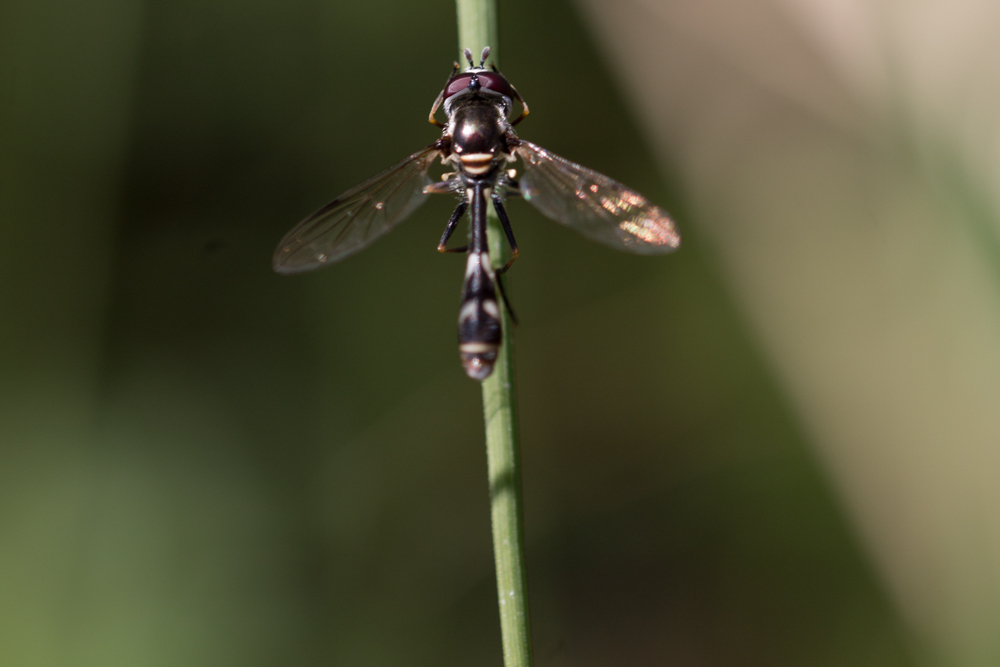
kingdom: Animalia
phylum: Arthropoda
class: Insecta
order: Diptera
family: Syrphidae
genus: Dioprosopa
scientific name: Dioprosopa clavatus
